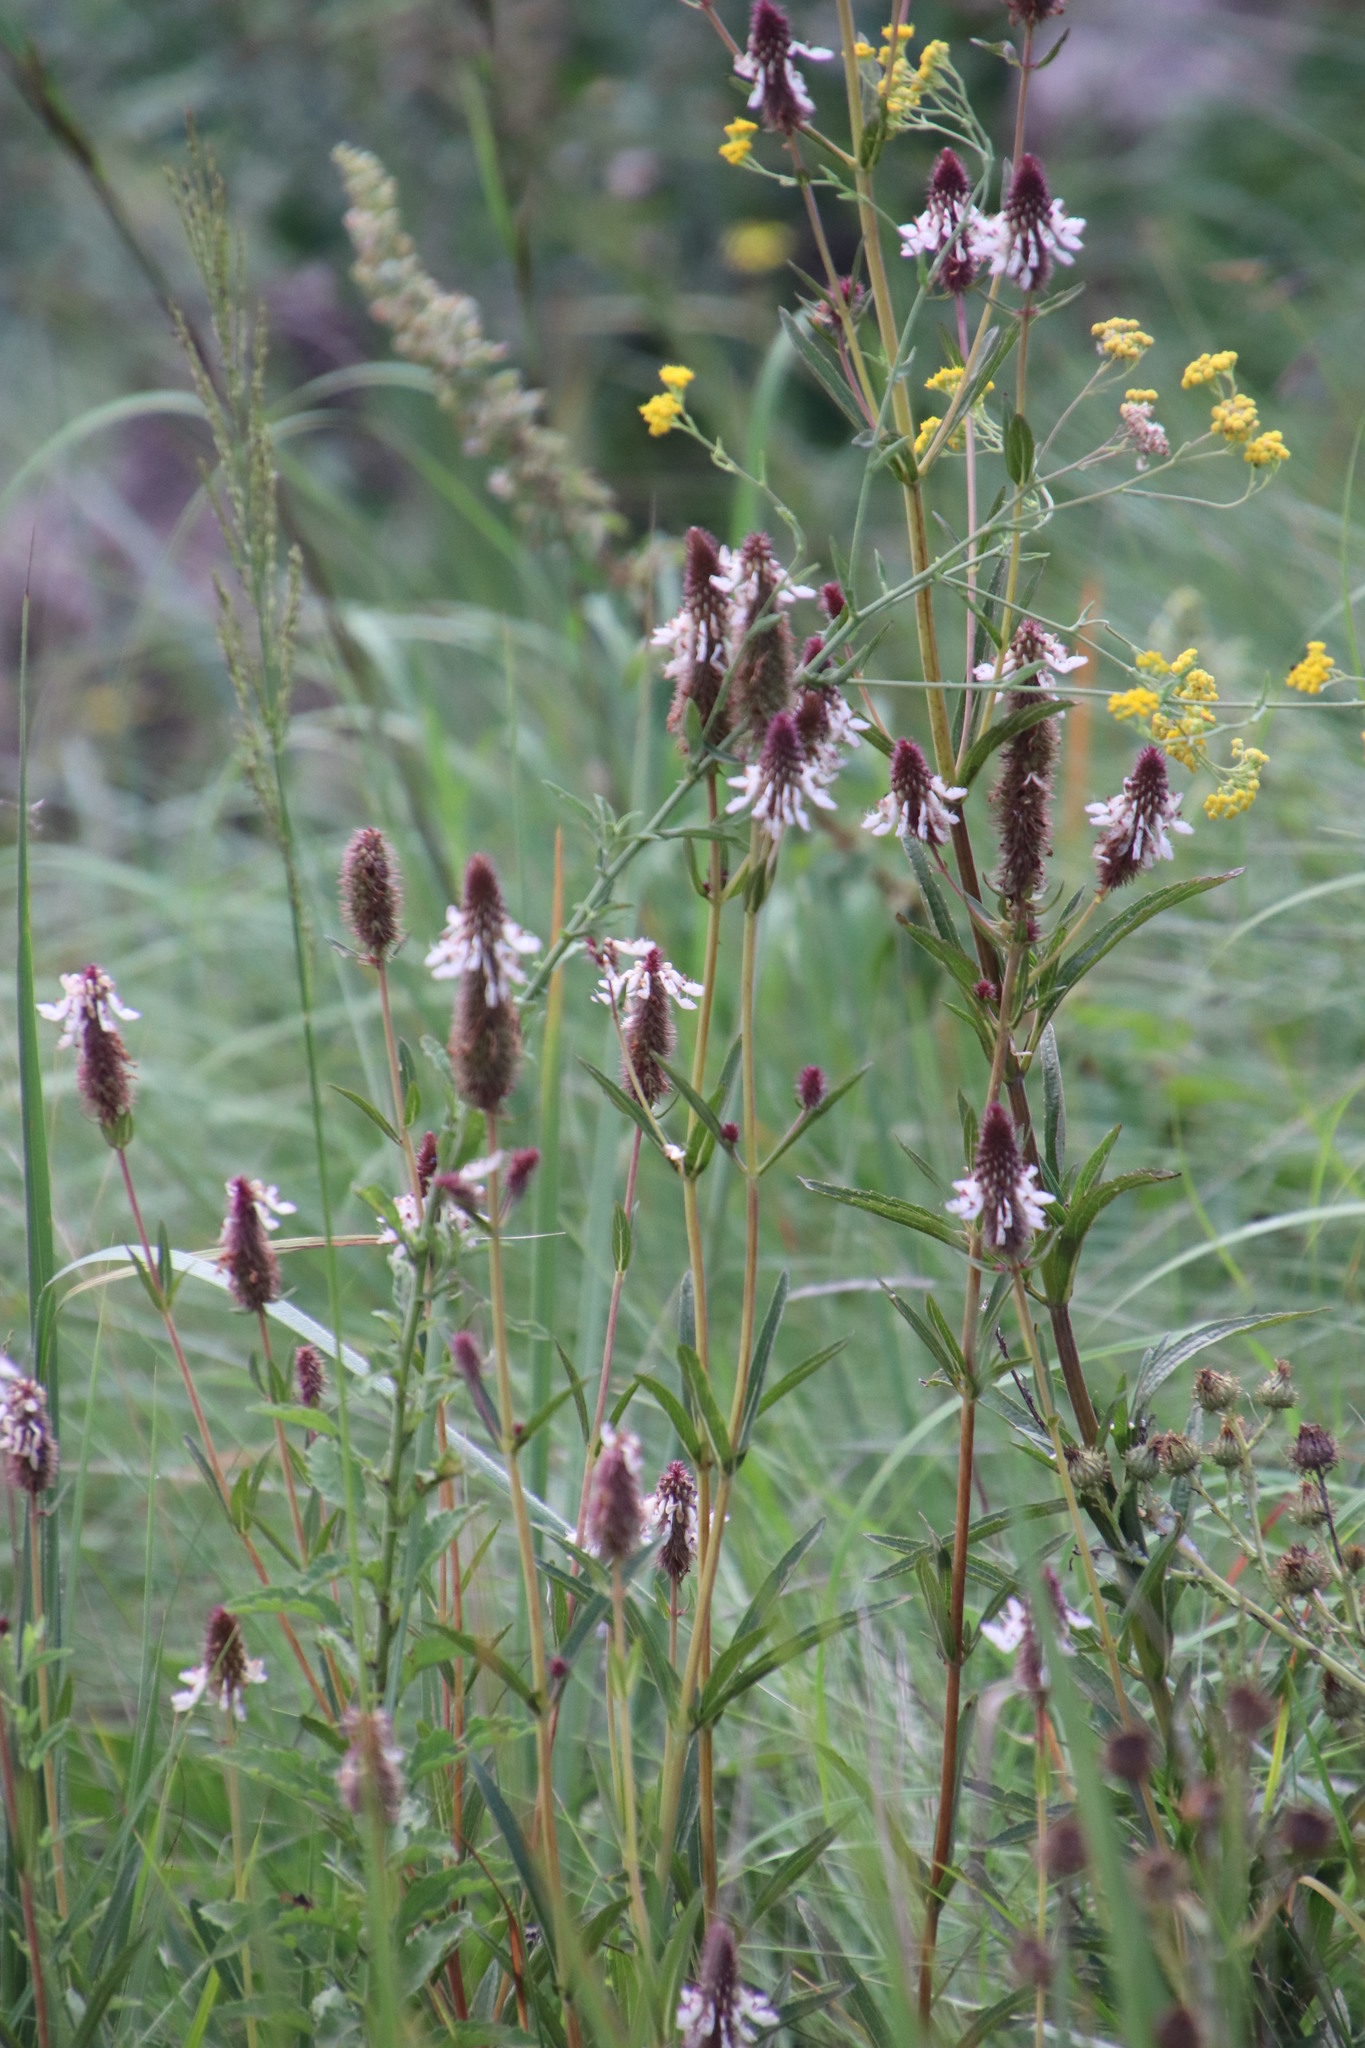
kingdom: Plantae
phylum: Tracheophyta
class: Magnoliopsida
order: Lamiales
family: Lamiaceae
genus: Coleus
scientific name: Coleus kirkii
